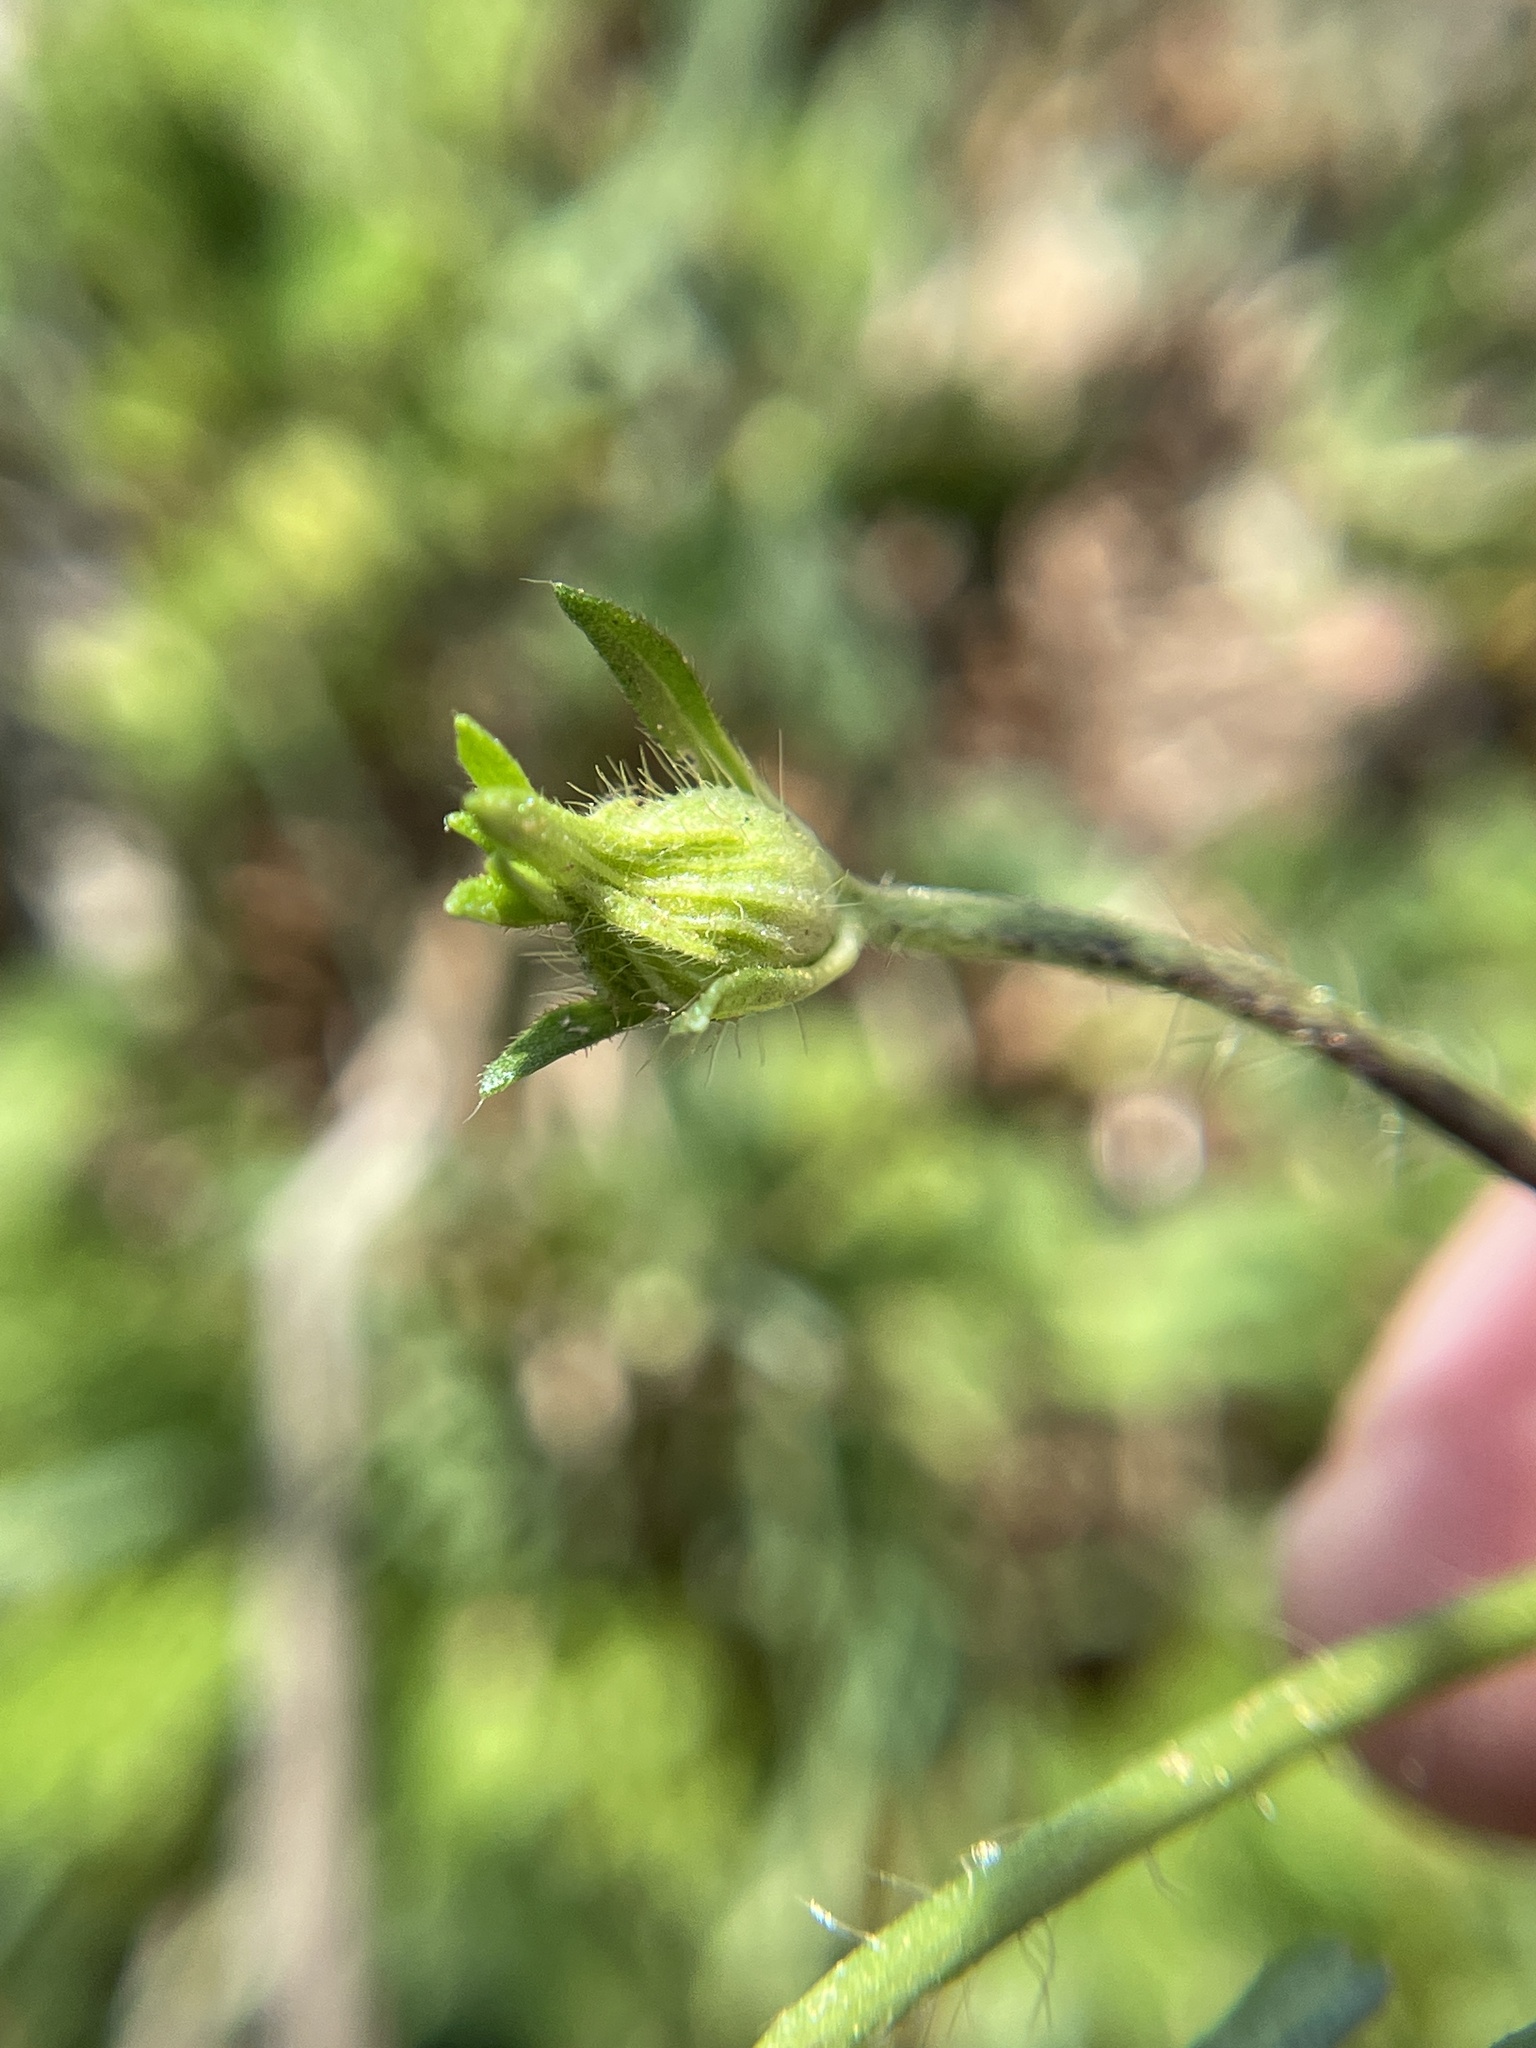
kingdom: Plantae
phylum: Tracheophyta
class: Magnoliopsida
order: Malvales
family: Malvaceae
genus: Callirhoe
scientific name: Callirhoe involucrata
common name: Purple poppy-mallow
